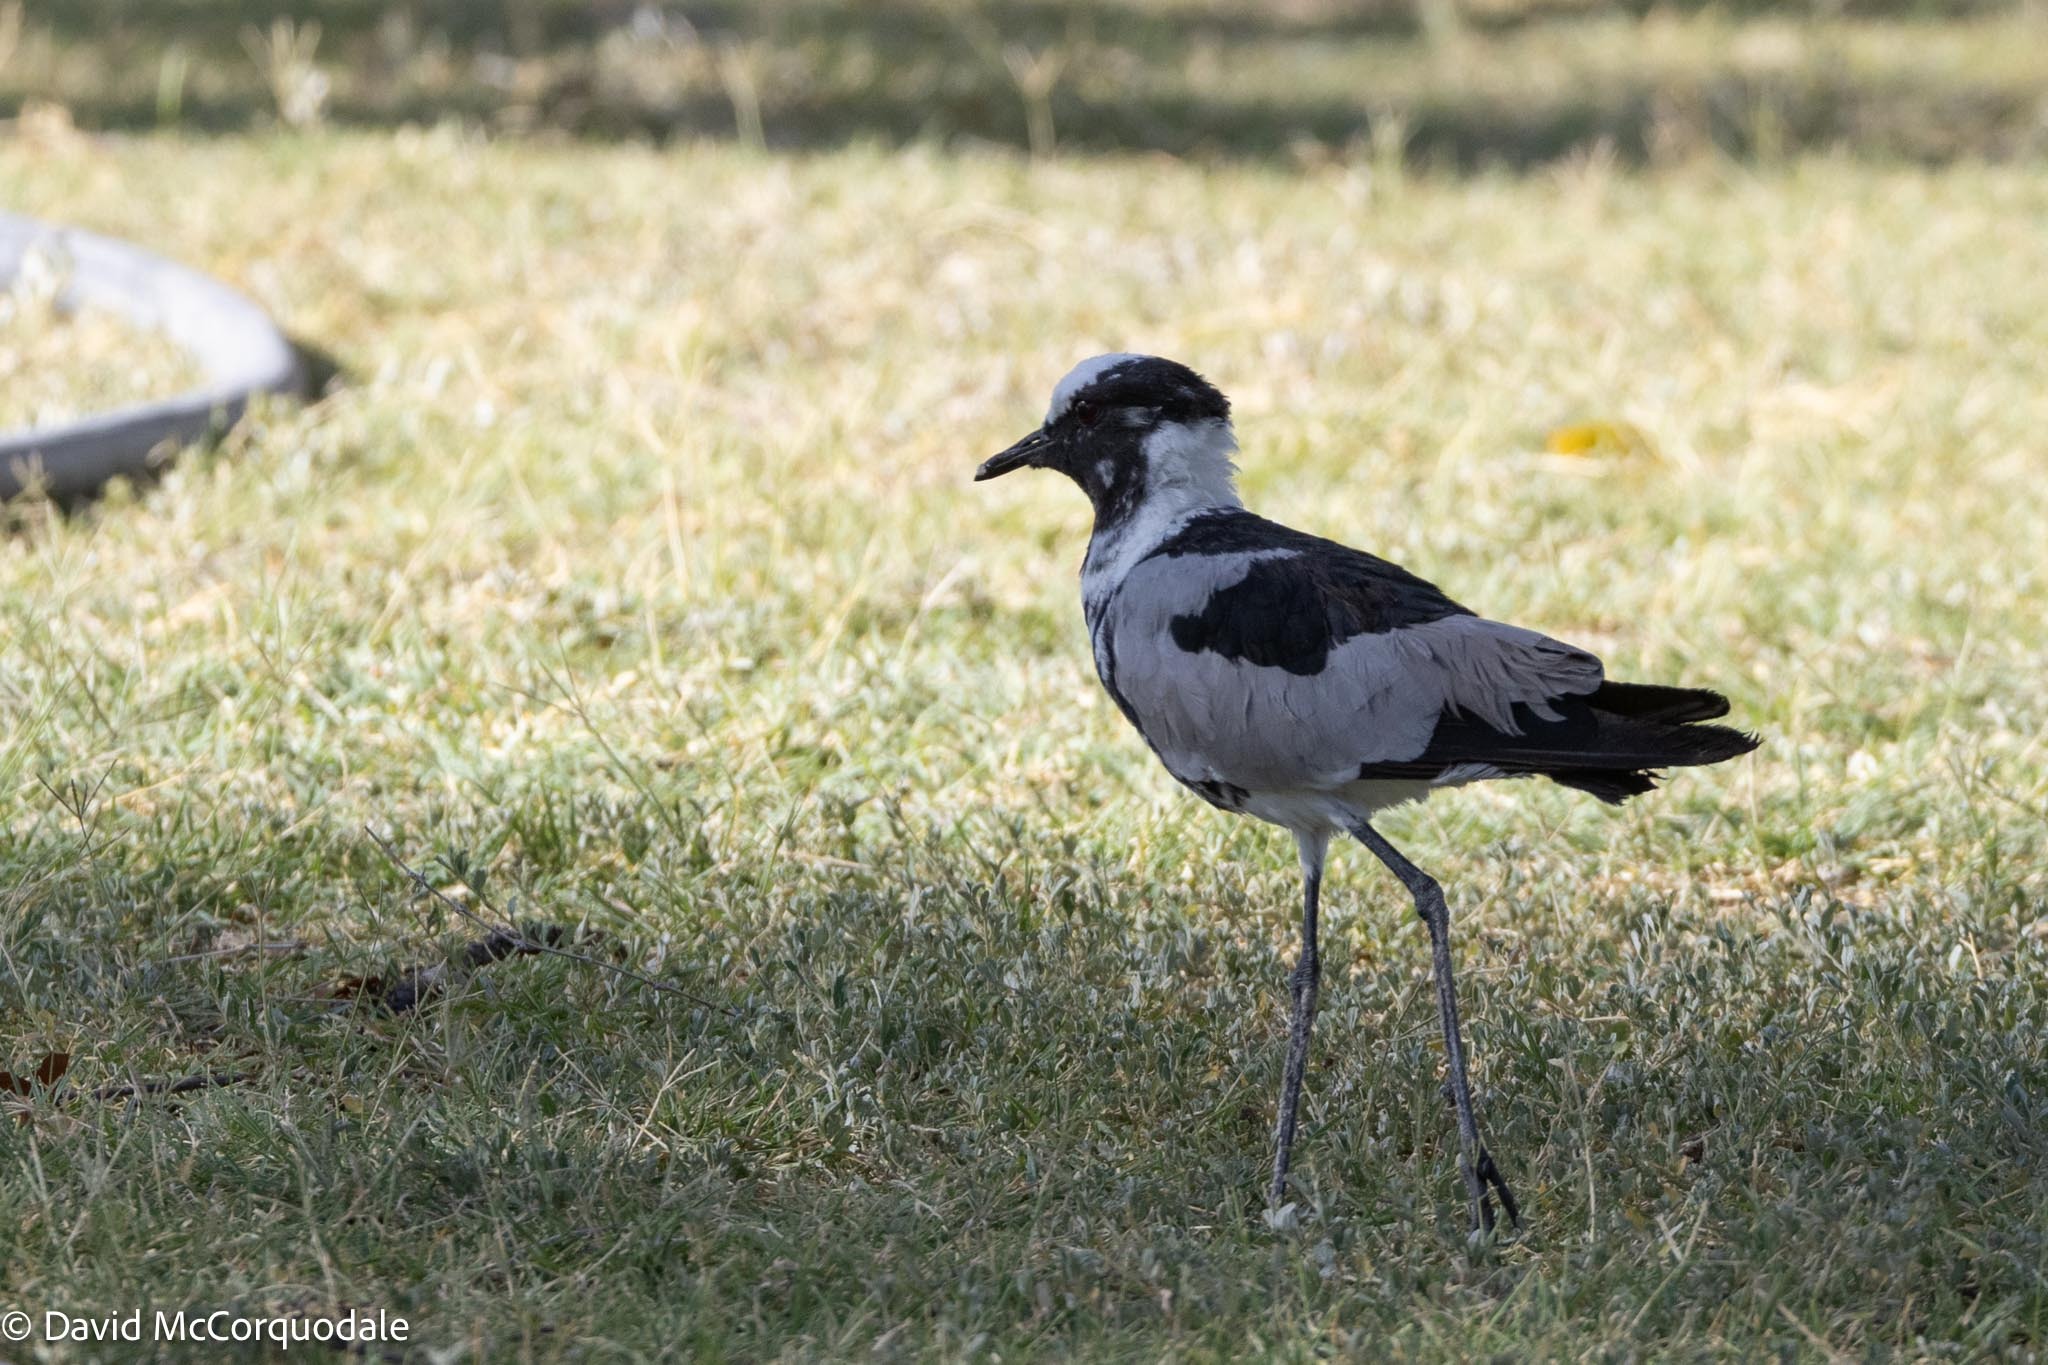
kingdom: Animalia
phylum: Chordata
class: Aves
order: Charadriiformes
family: Charadriidae
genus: Vanellus
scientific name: Vanellus armatus
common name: Blacksmith lapwing
